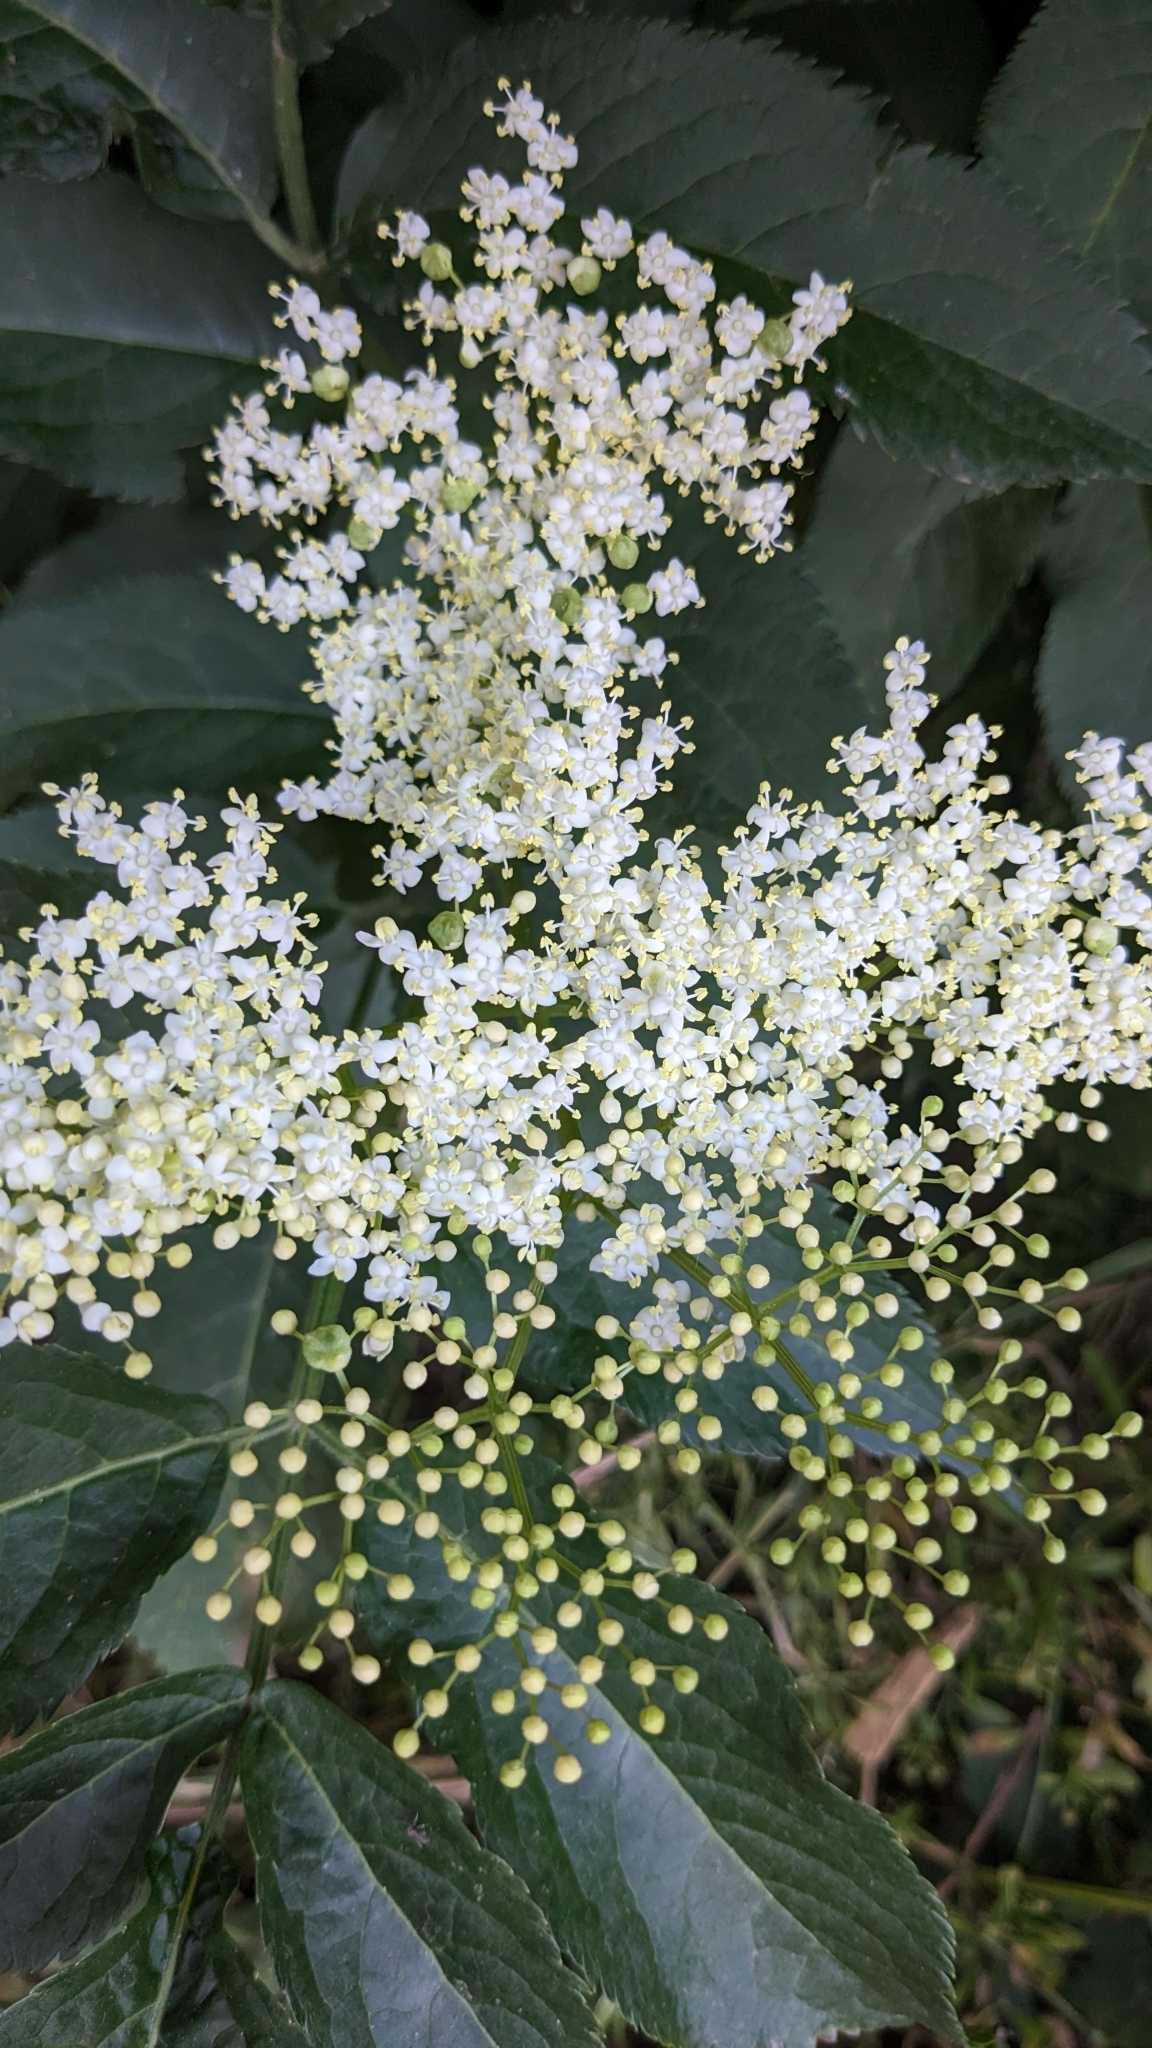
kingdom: Plantae
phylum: Tracheophyta
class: Magnoliopsida
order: Dipsacales
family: Viburnaceae
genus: Sambucus
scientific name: Sambucus nigra
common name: Elder
